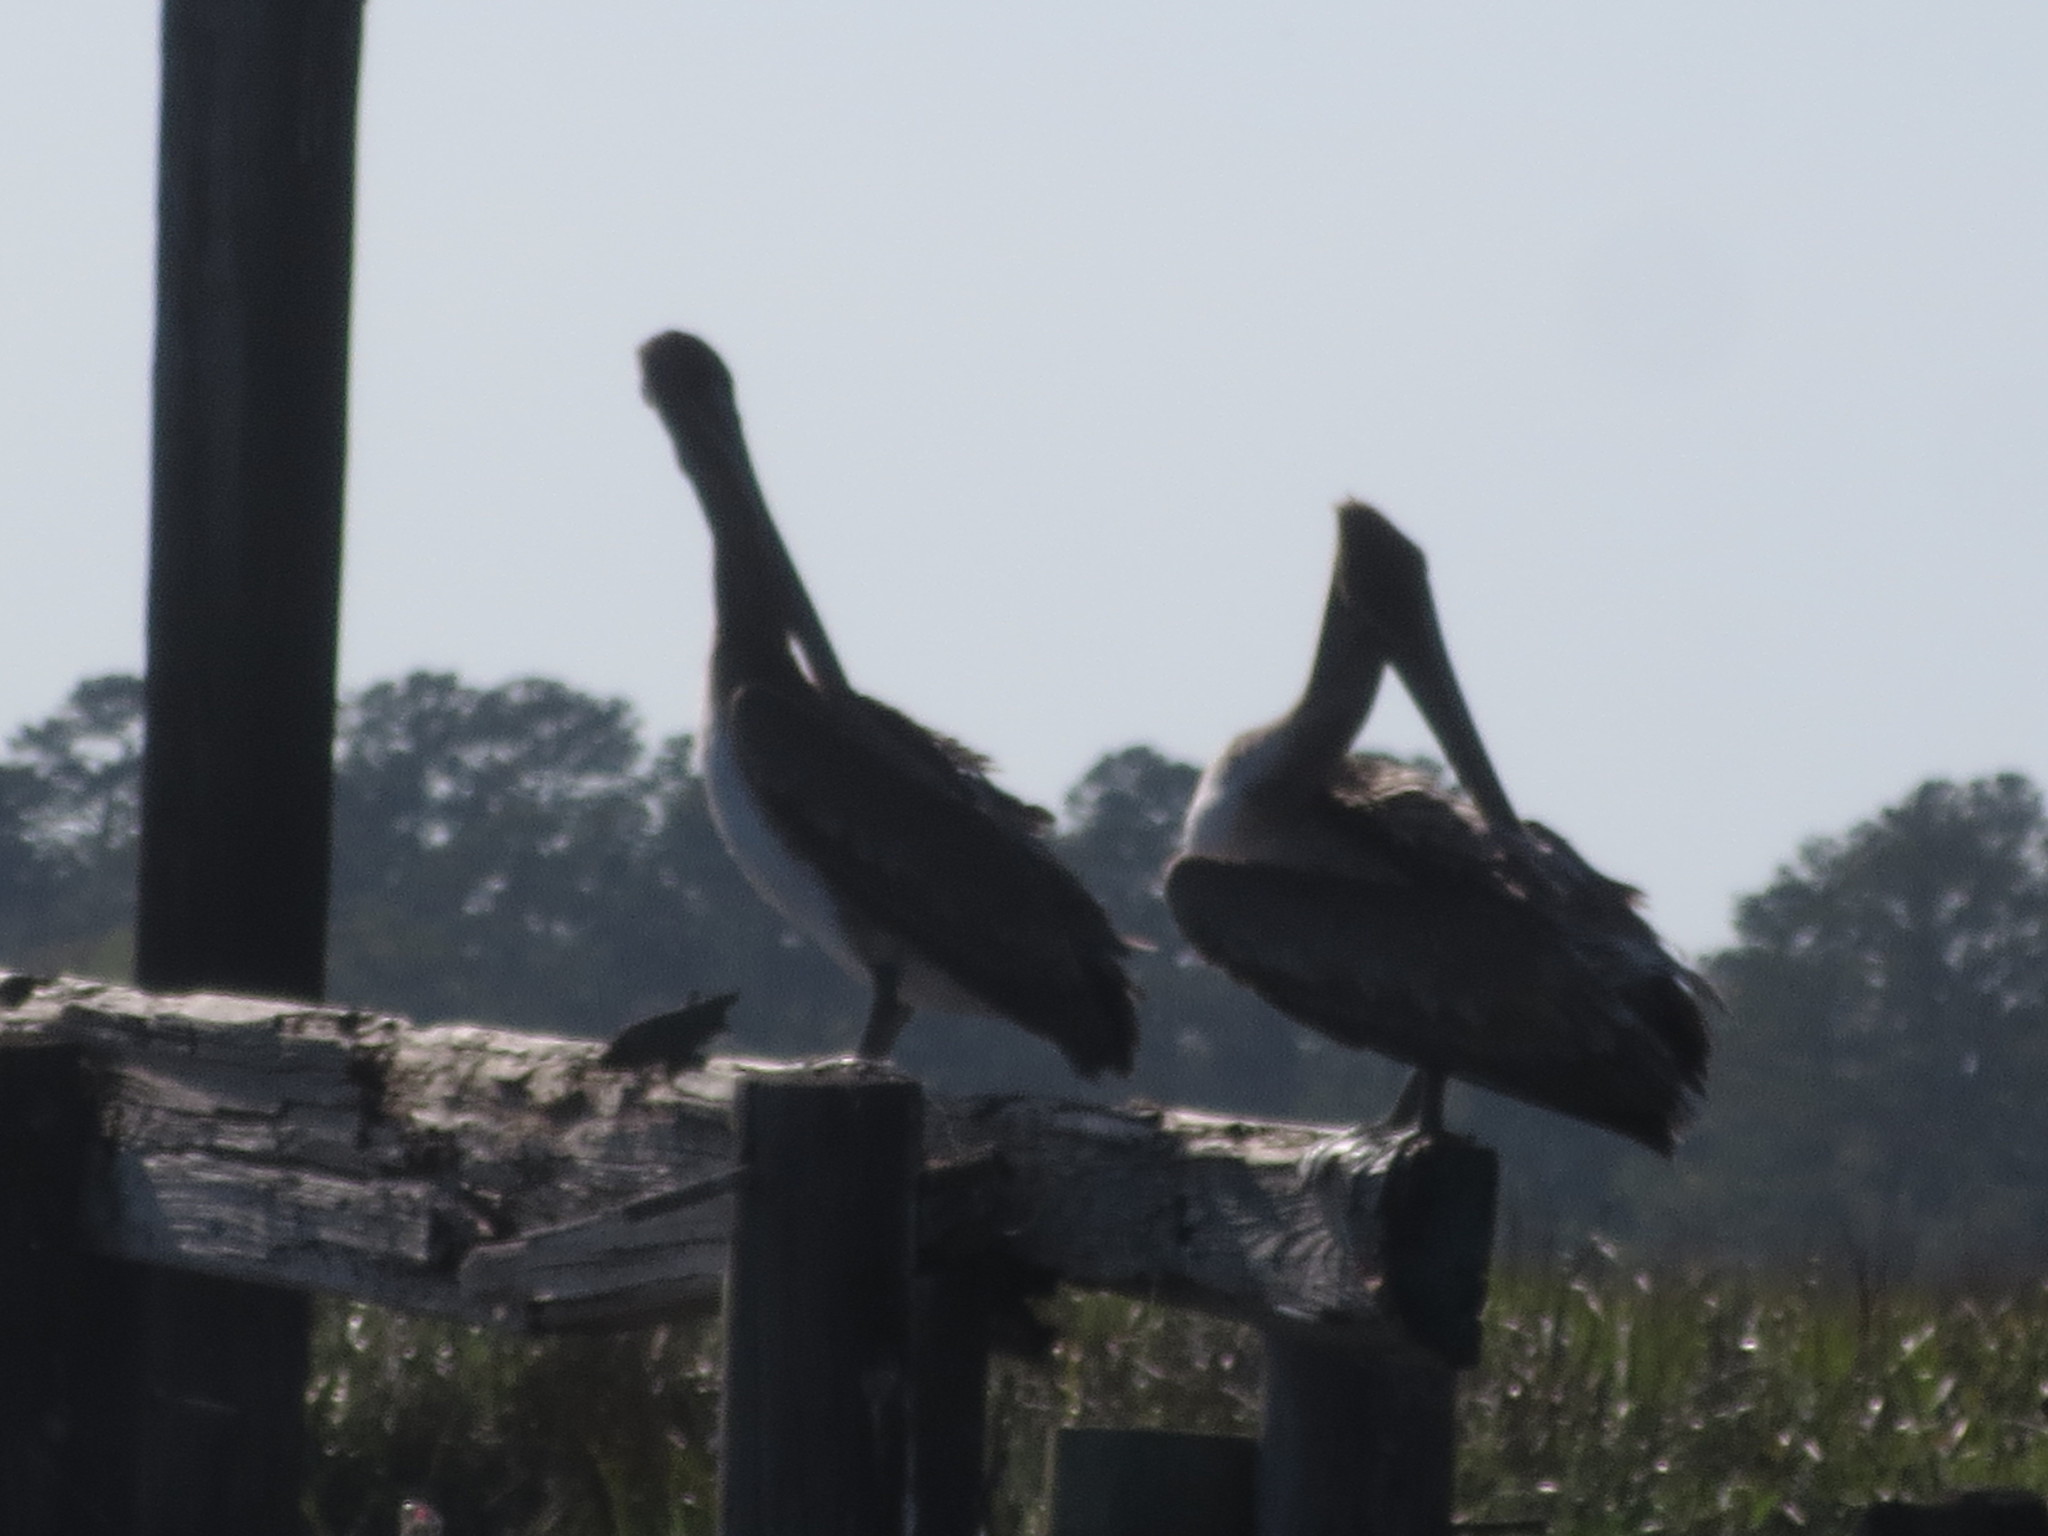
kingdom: Animalia
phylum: Chordata
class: Aves
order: Pelecaniformes
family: Pelecanidae
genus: Pelecanus
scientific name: Pelecanus occidentalis
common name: Brown pelican
